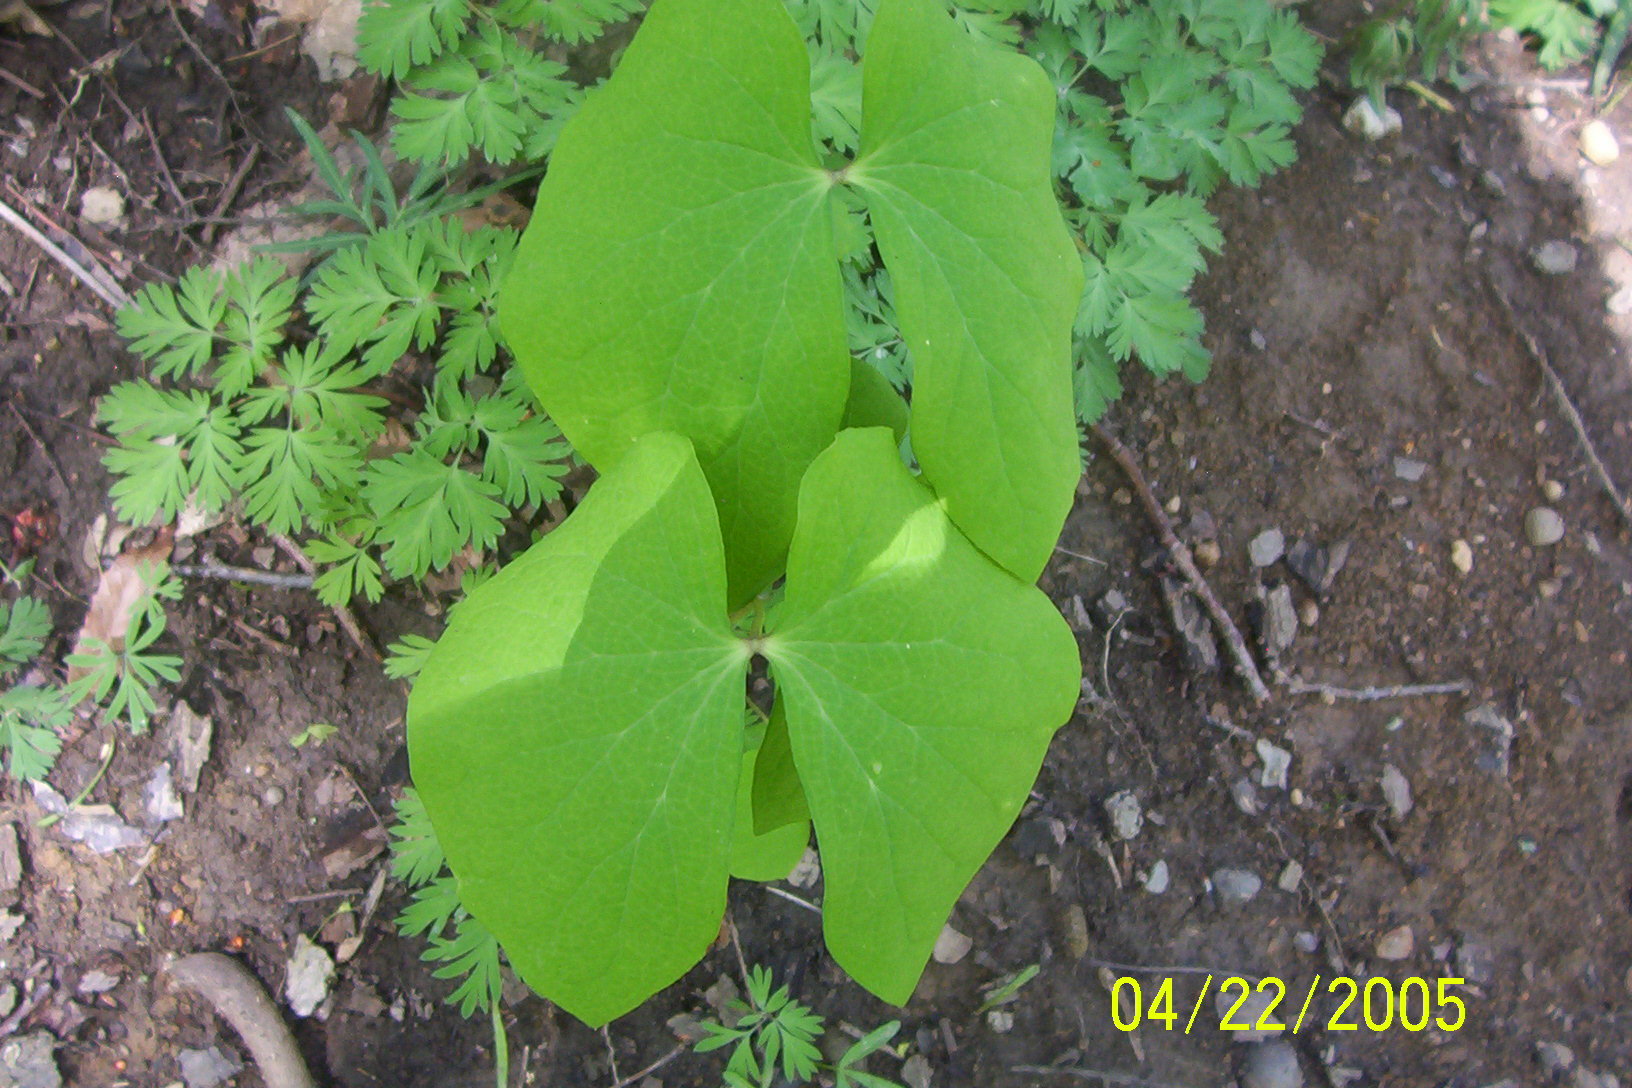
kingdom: Plantae
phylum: Tracheophyta
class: Magnoliopsida
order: Ranunculales
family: Berberidaceae
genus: Jeffersonia
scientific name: Jeffersonia diphylla
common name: Rheumatism-root
